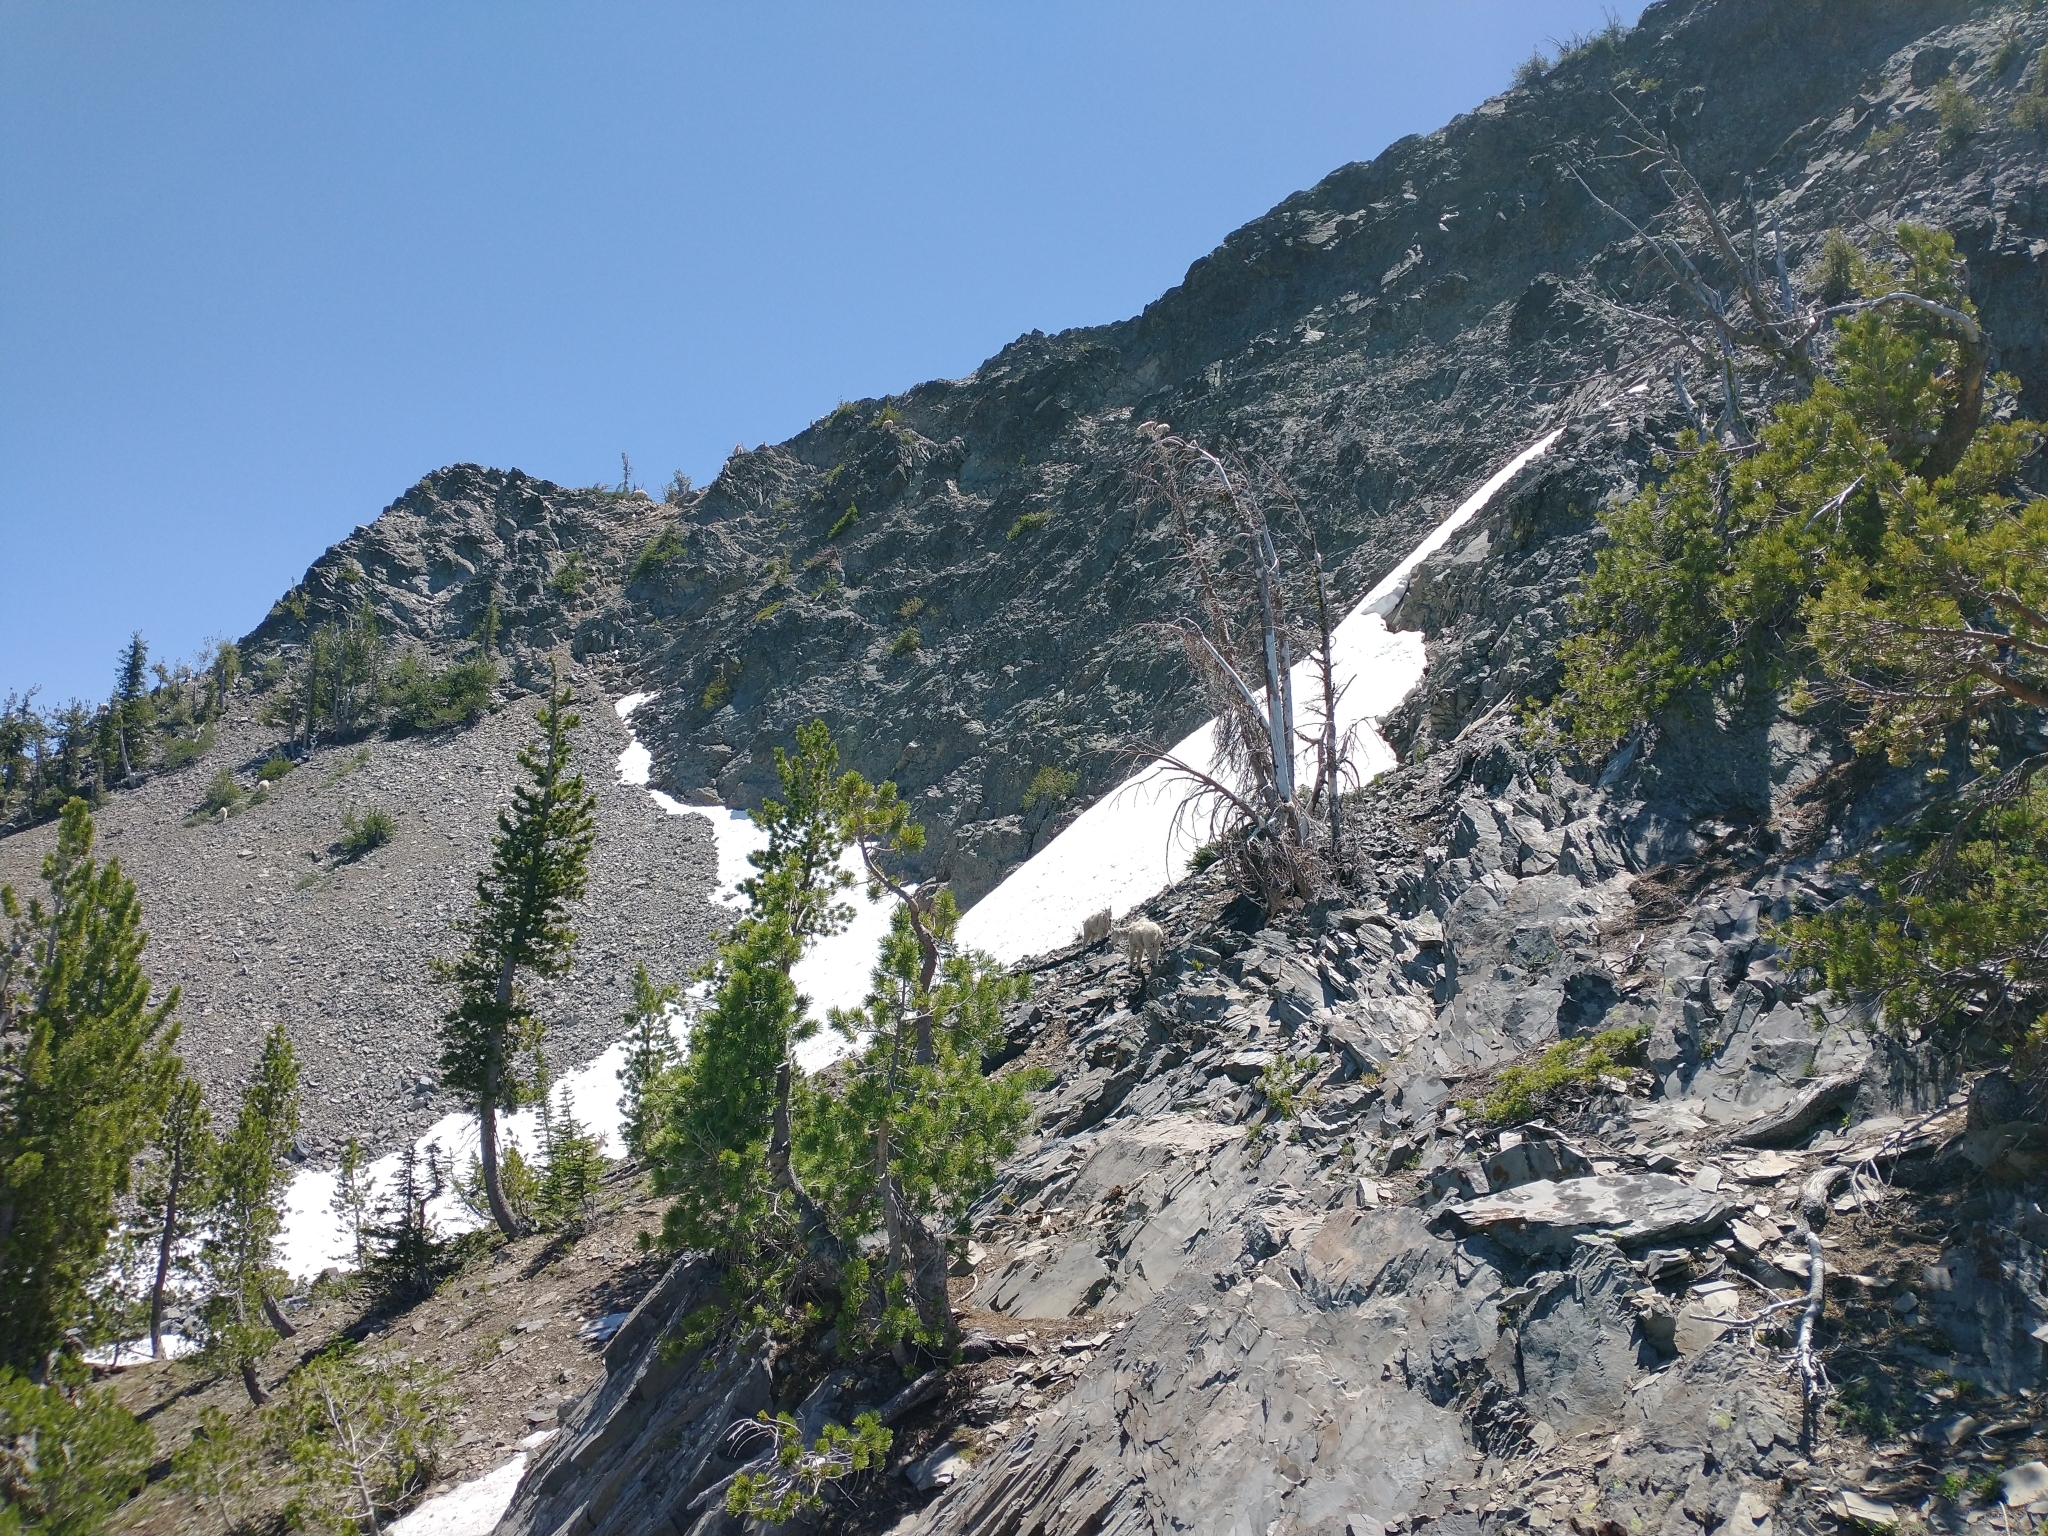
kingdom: Animalia
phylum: Chordata
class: Mammalia
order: Artiodactyla
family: Bovidae
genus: Oreamnos
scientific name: Oreamnos americanus
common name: Mountain goat
